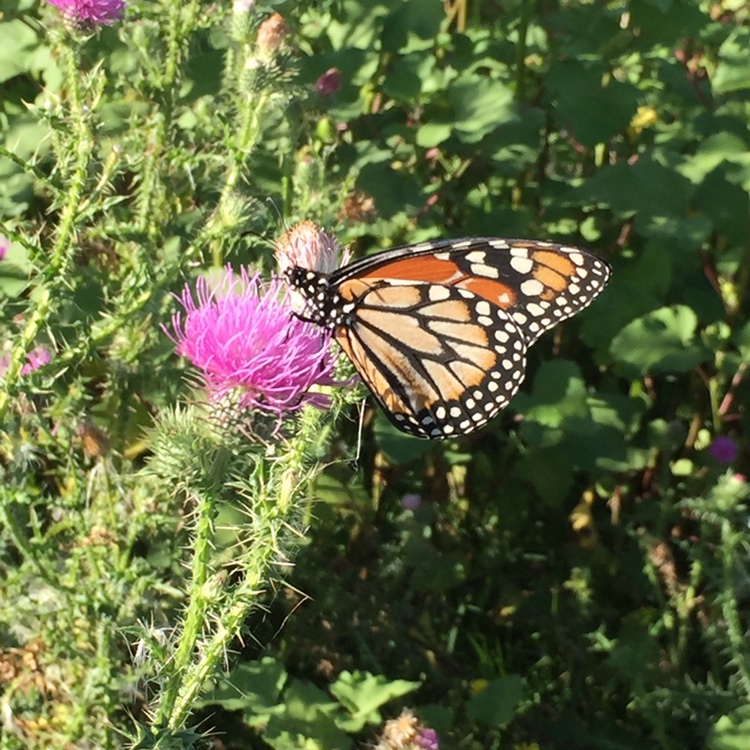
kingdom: Animalia
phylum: Arthropoda
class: Insecta
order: Lepidoptera
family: Nymphalidae
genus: Danaus
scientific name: Danaus erippus
